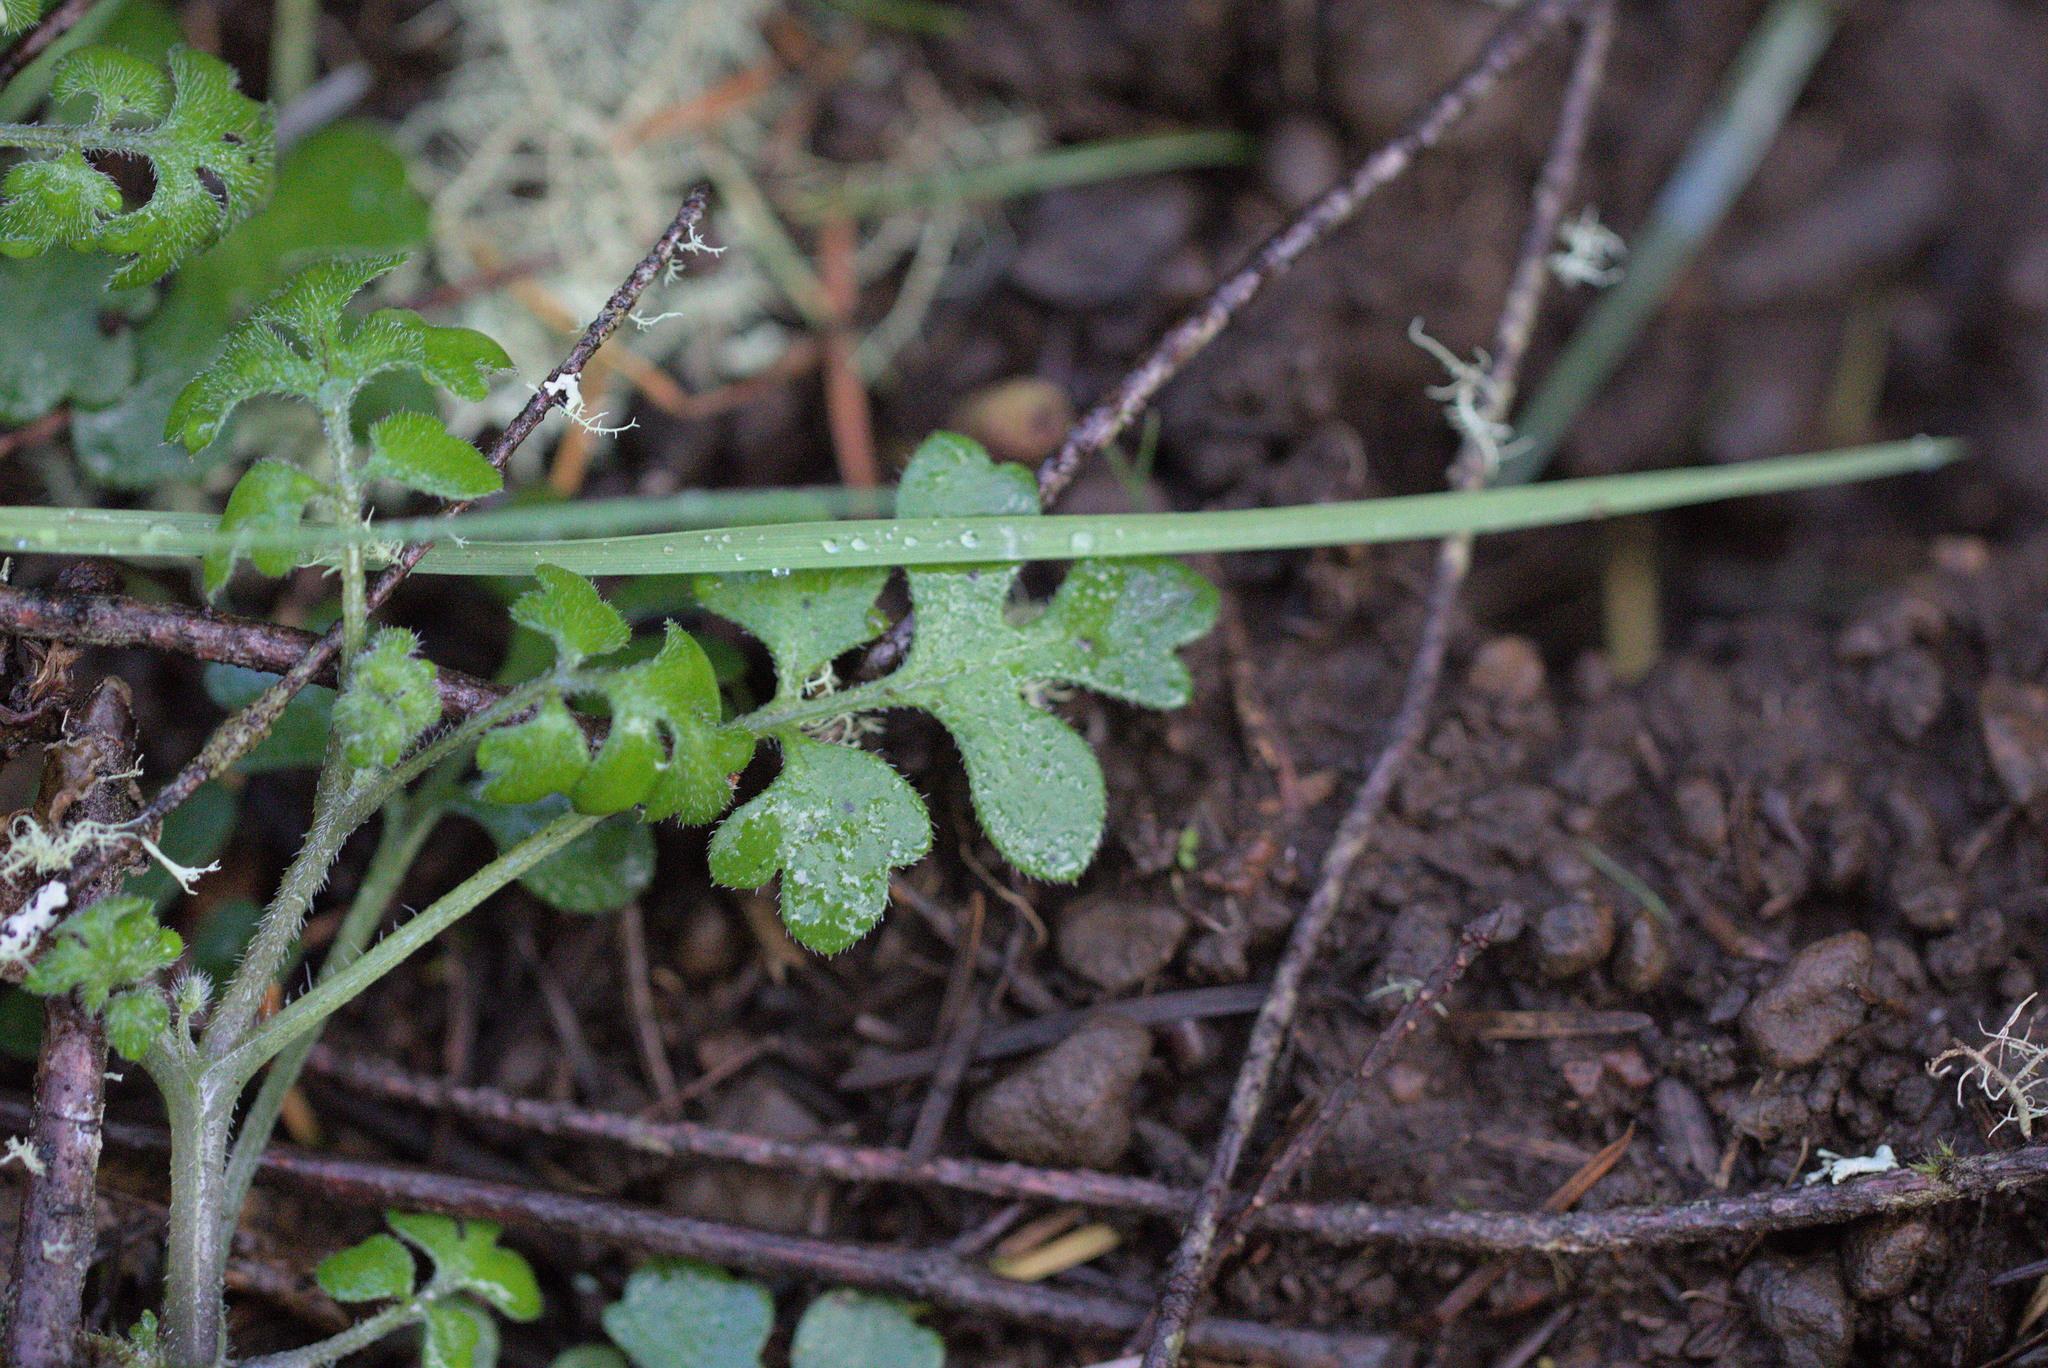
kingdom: Plantae
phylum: Tracheophyta
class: Magnoliopsida
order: Boraginales
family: Hydrophyllaceae
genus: Nemophila
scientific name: Nemophila parviflora
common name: Small-flowered baby-blue-eyes
